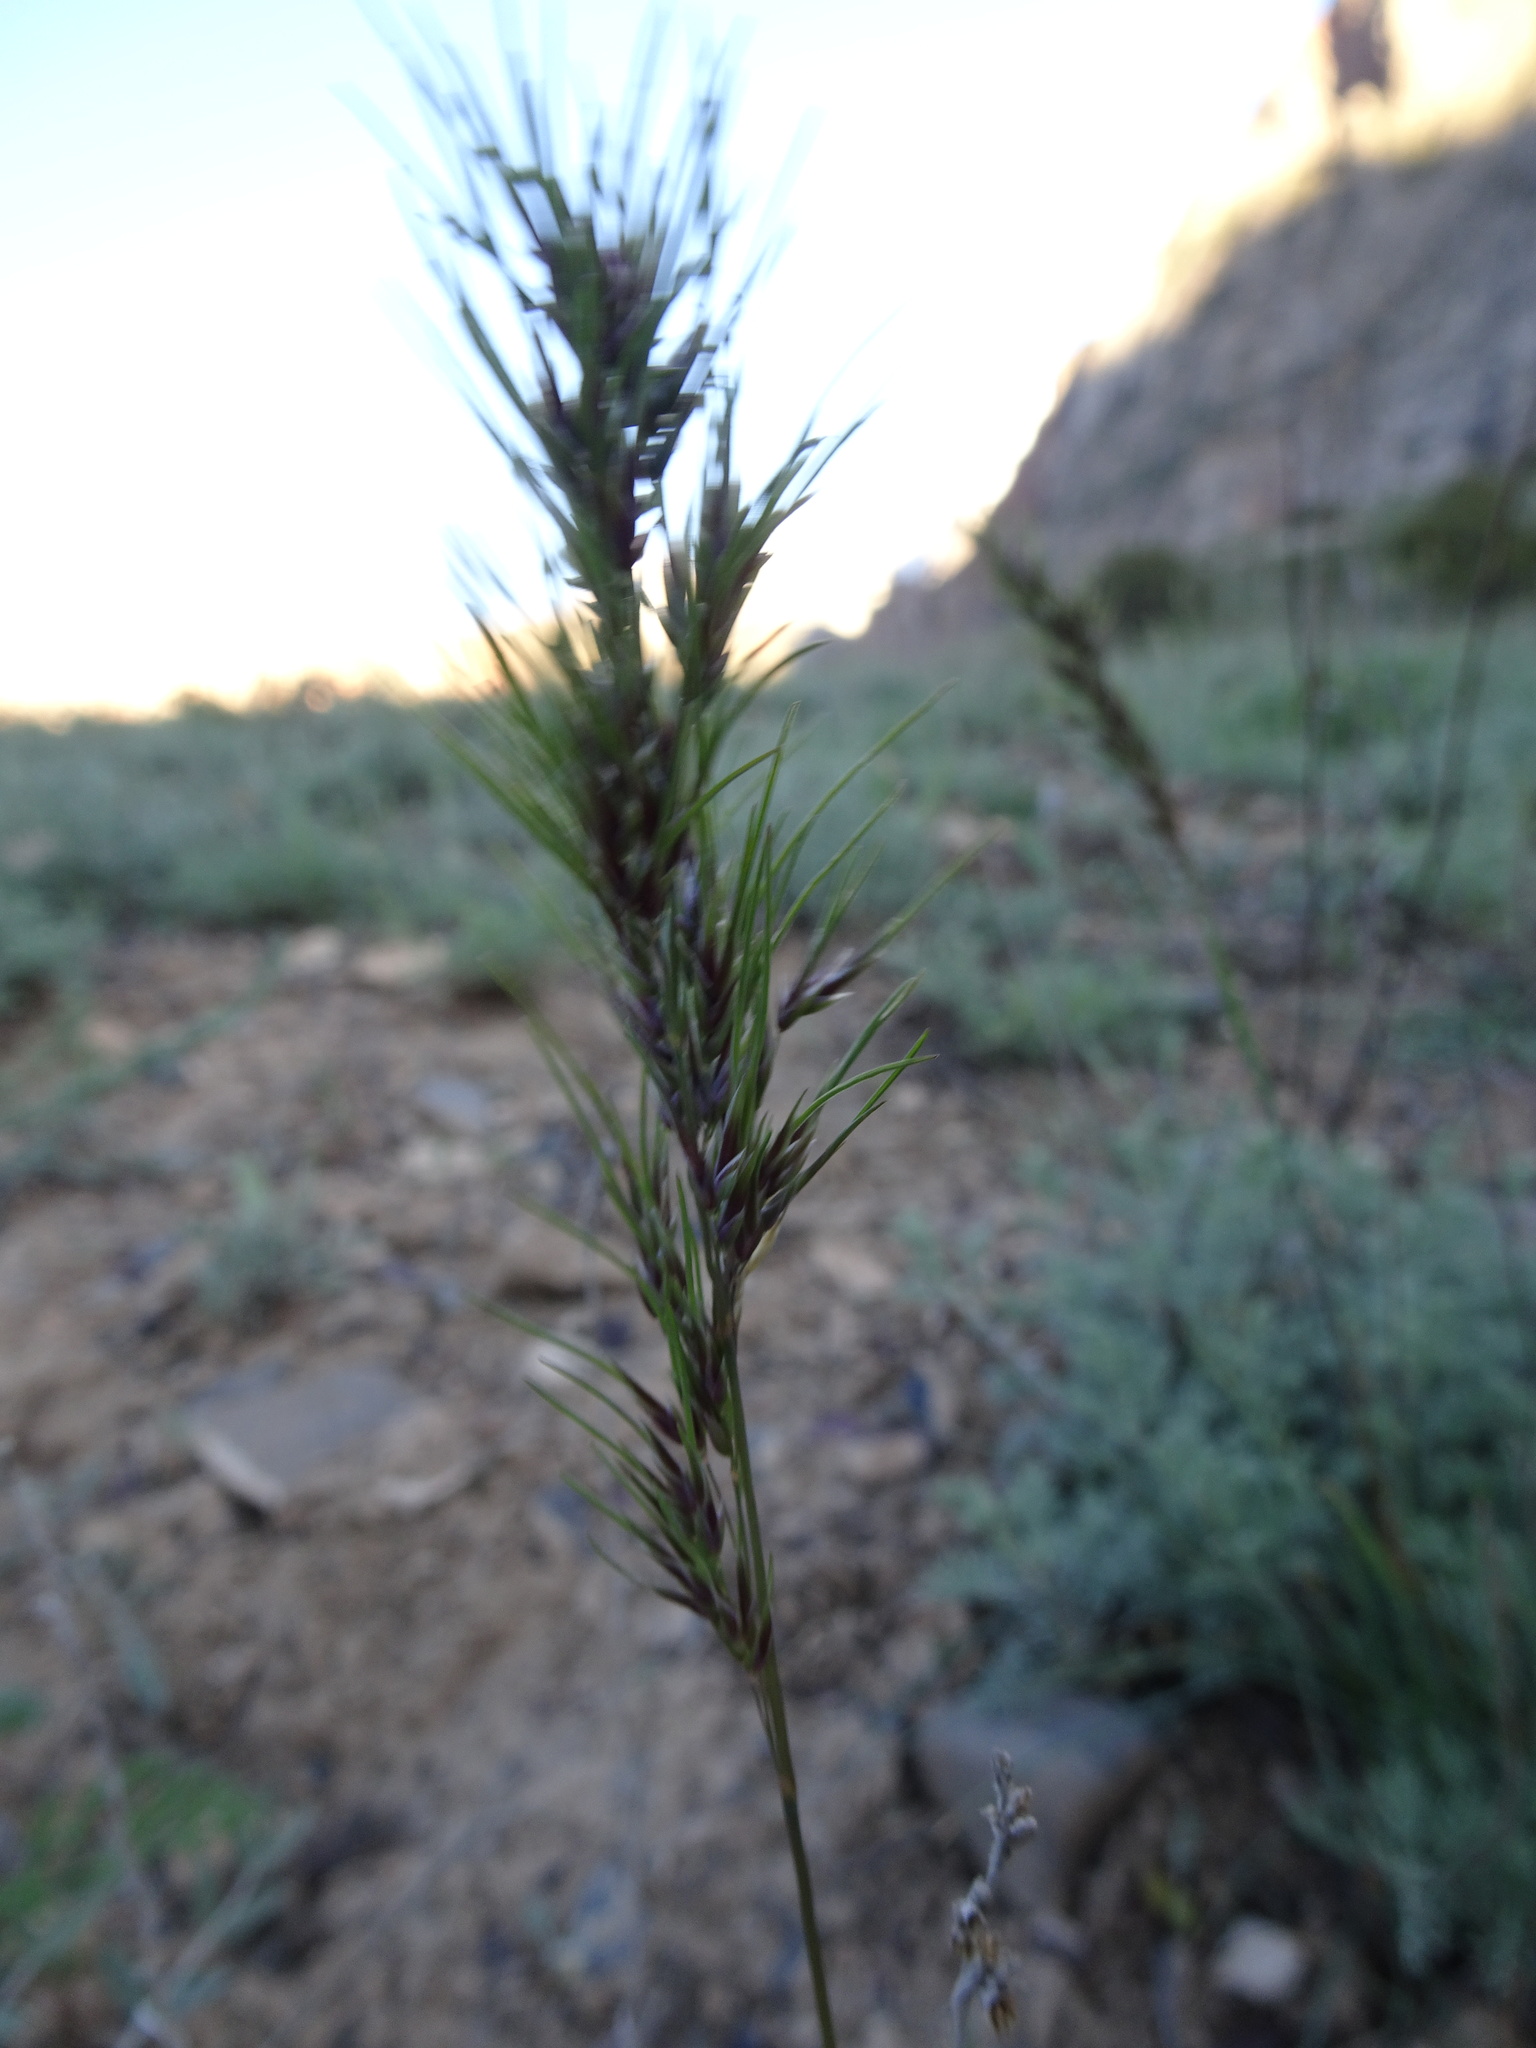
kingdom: Plantae
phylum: Tracheophyta
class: Liliopsida
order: Poales
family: Poaceae
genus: Poa
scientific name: Poa bulbosa
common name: Bulbous bluegrass
